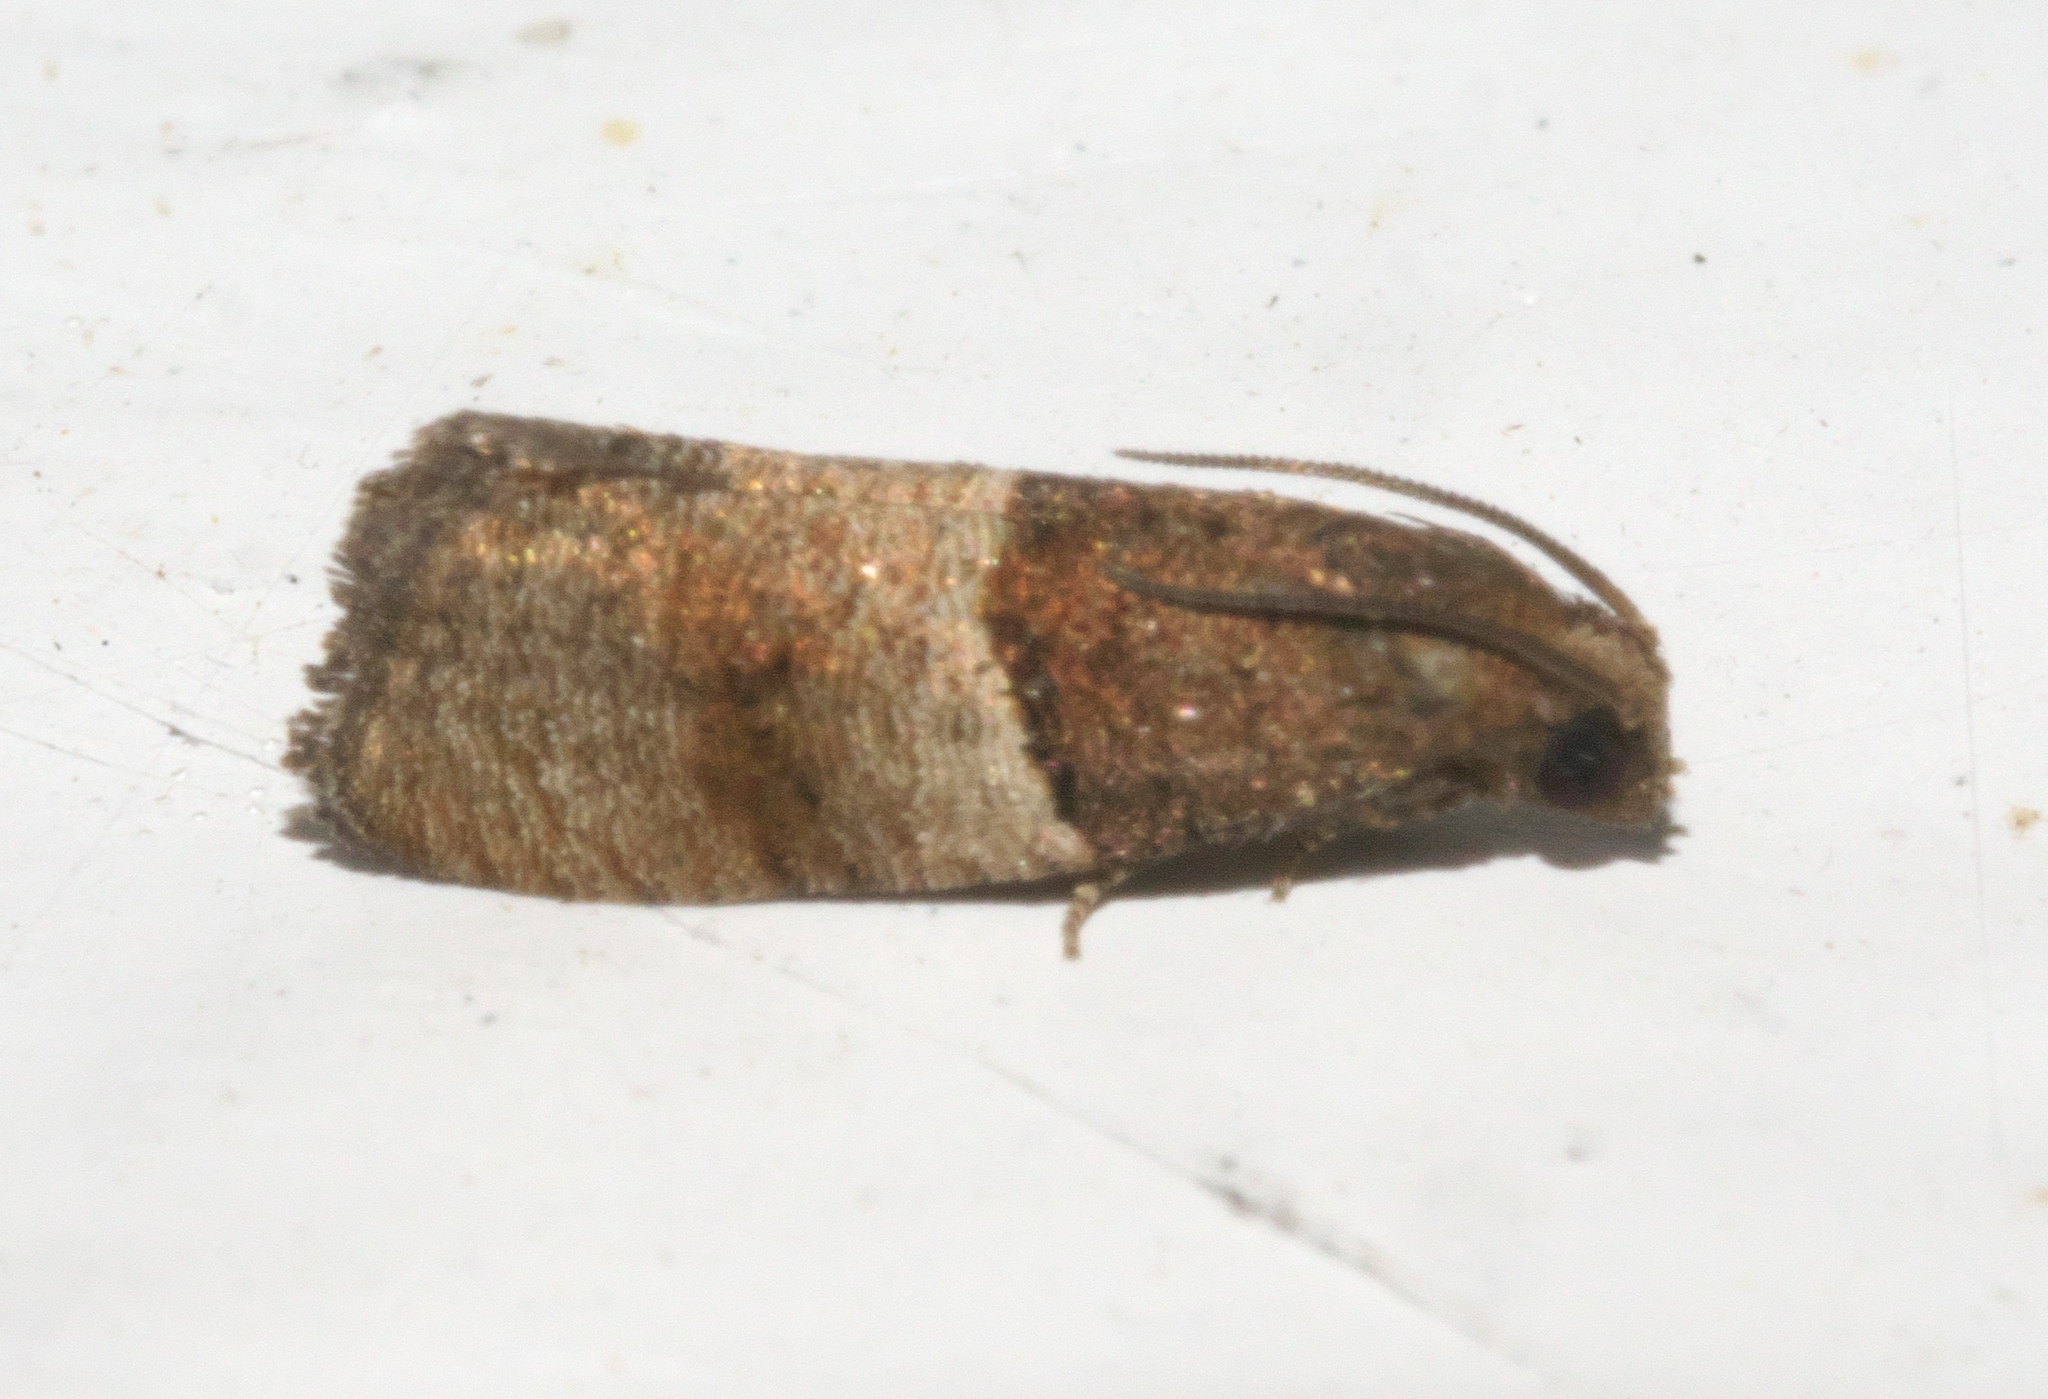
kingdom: Animalia
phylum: Arthropoda
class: Insecta
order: Lepidoptera
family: Tortricidae
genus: Larisa
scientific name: Larisa subsolana
